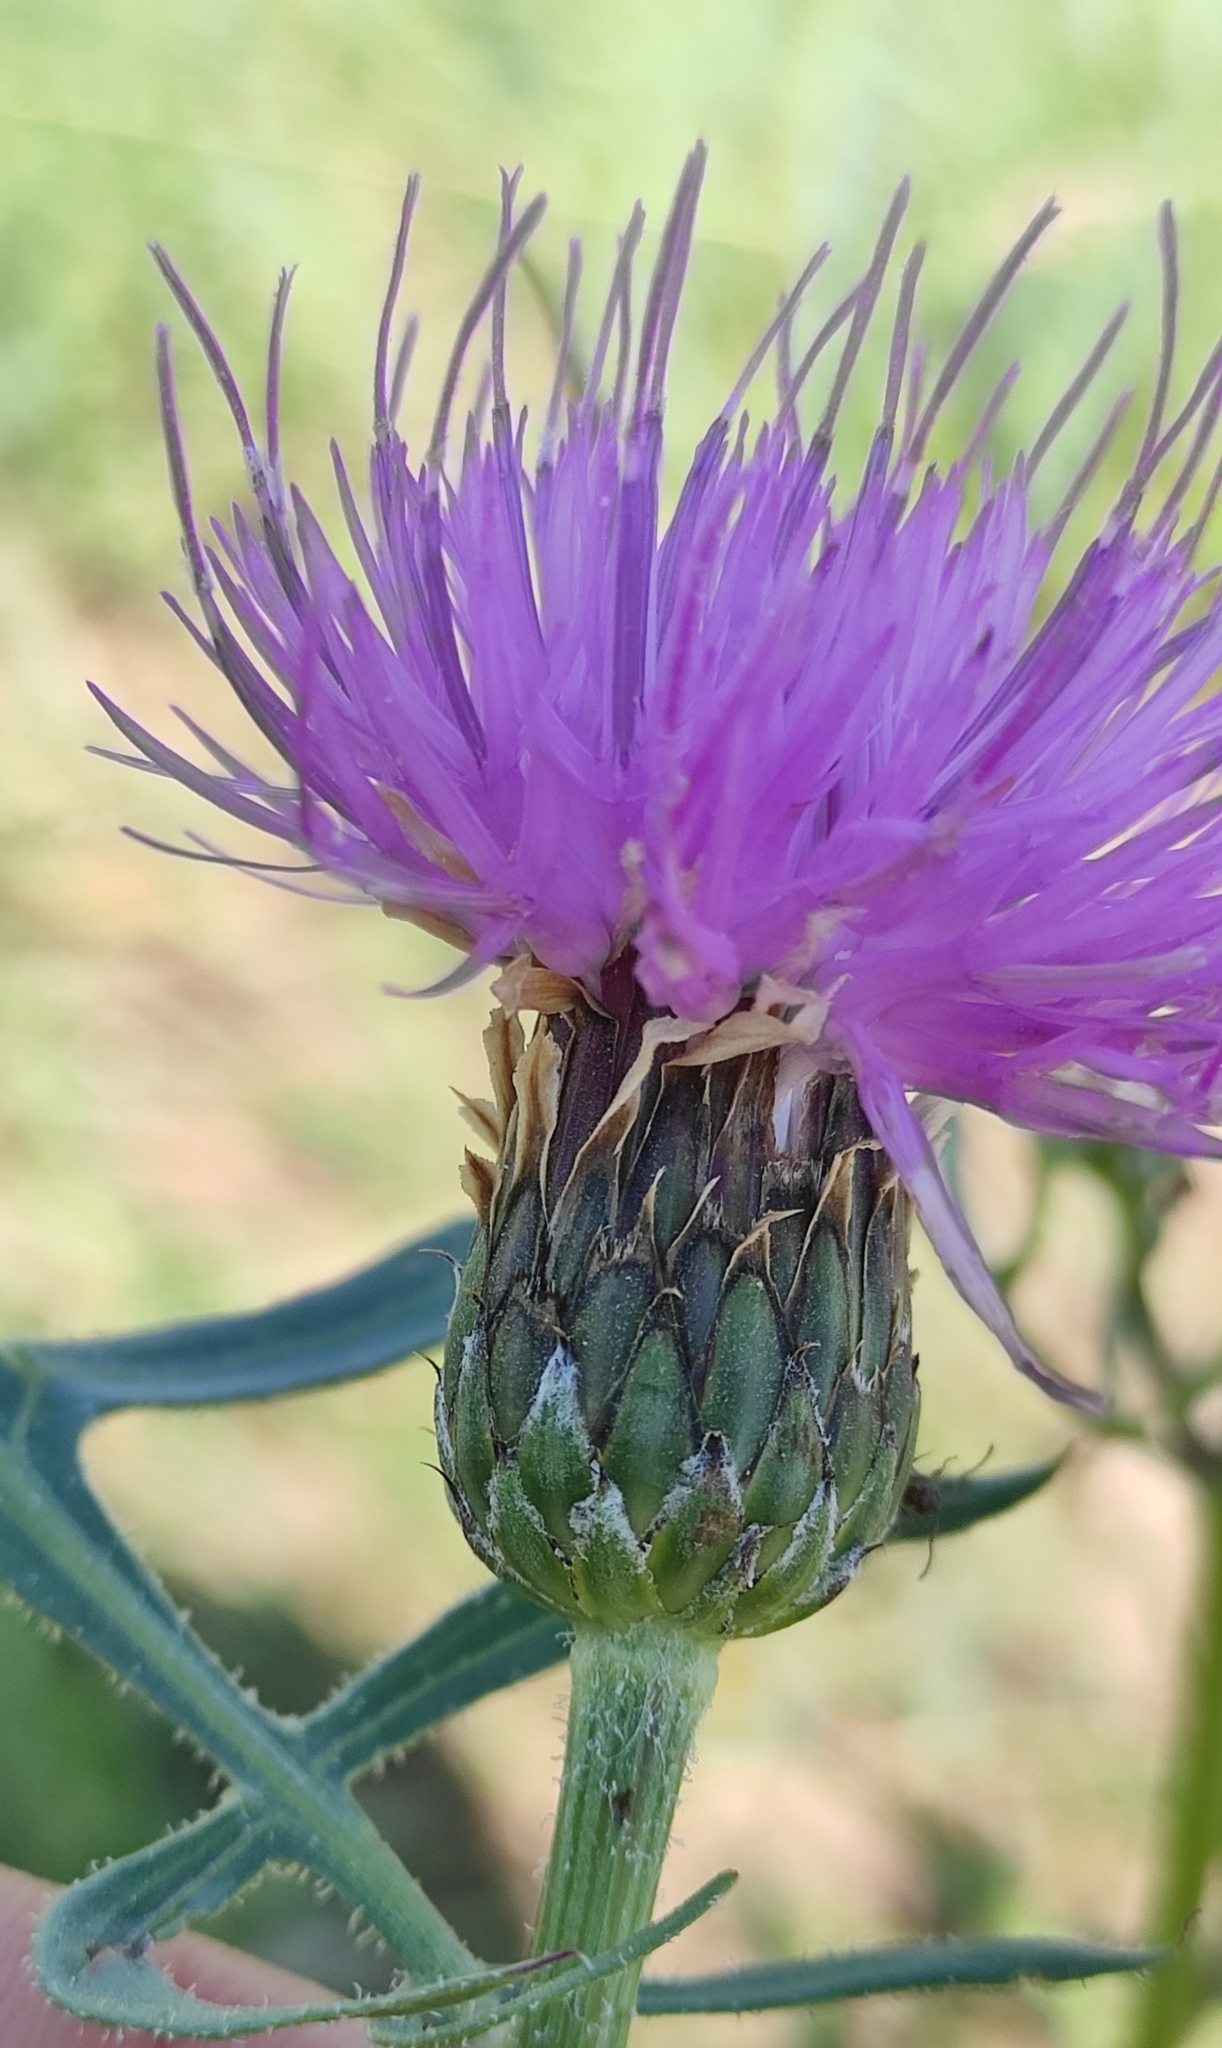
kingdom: Plantae
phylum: Tracheophyta
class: Magnoliopsida
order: Asterales
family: Asteraceae
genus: Klasea
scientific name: Klasea centauroides
